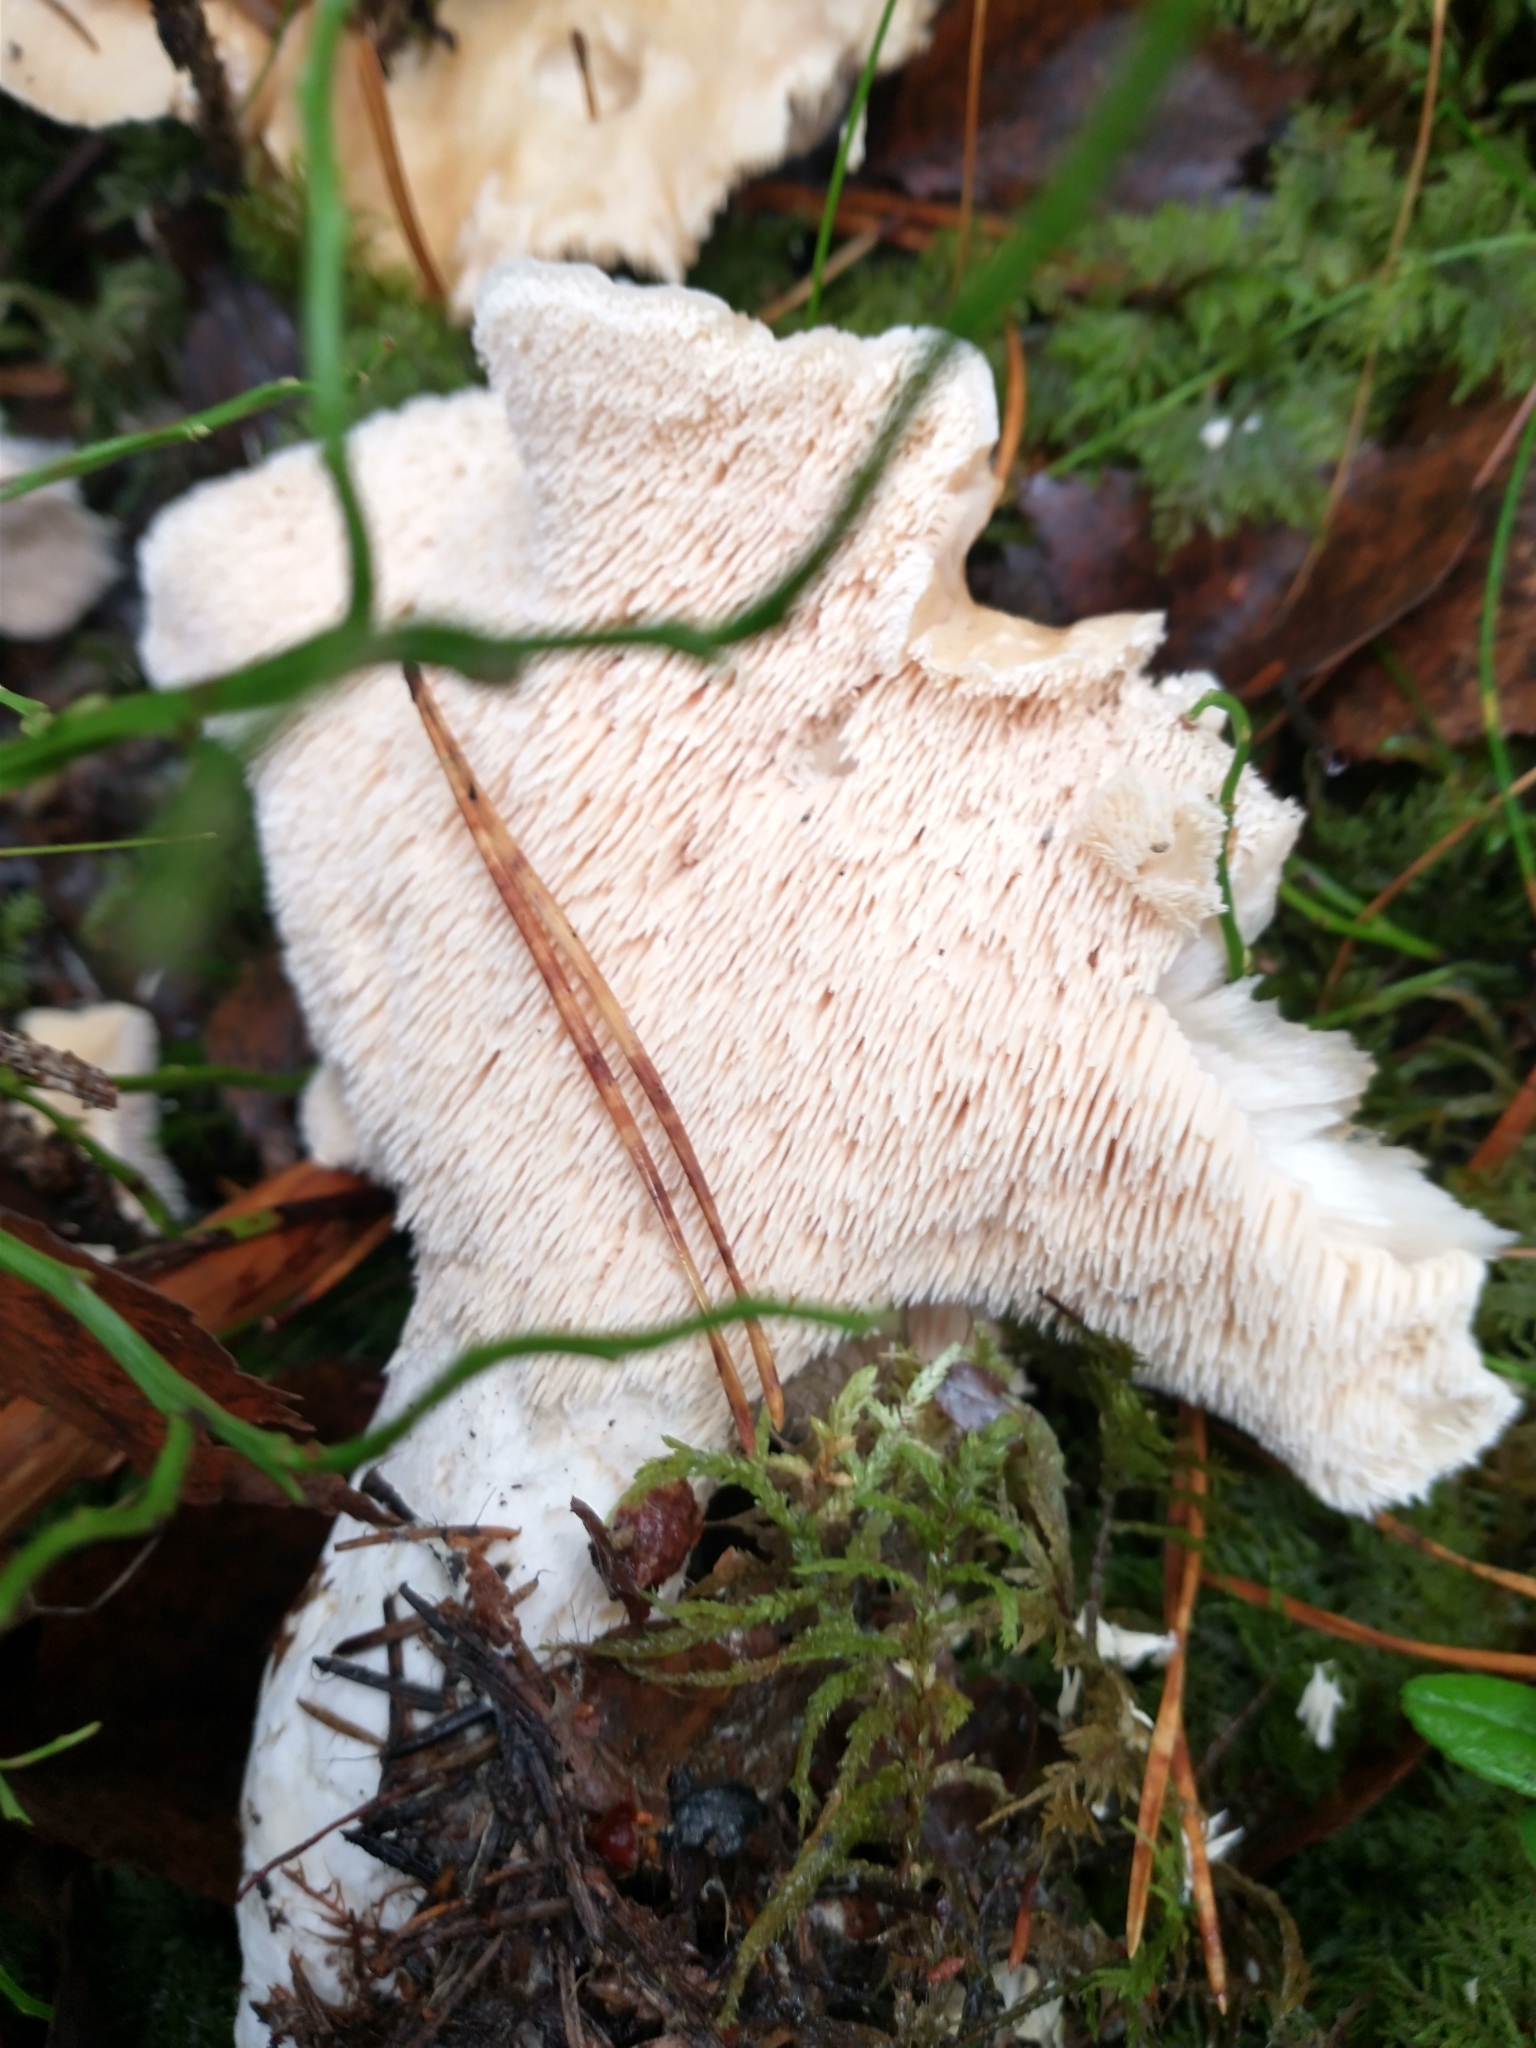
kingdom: Fungi
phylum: Basidiomycota
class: Agaricomycetes
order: Cantharellales
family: Hydnaceae
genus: Hydnum
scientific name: Hydnum repandum
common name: Wood hedgehog
